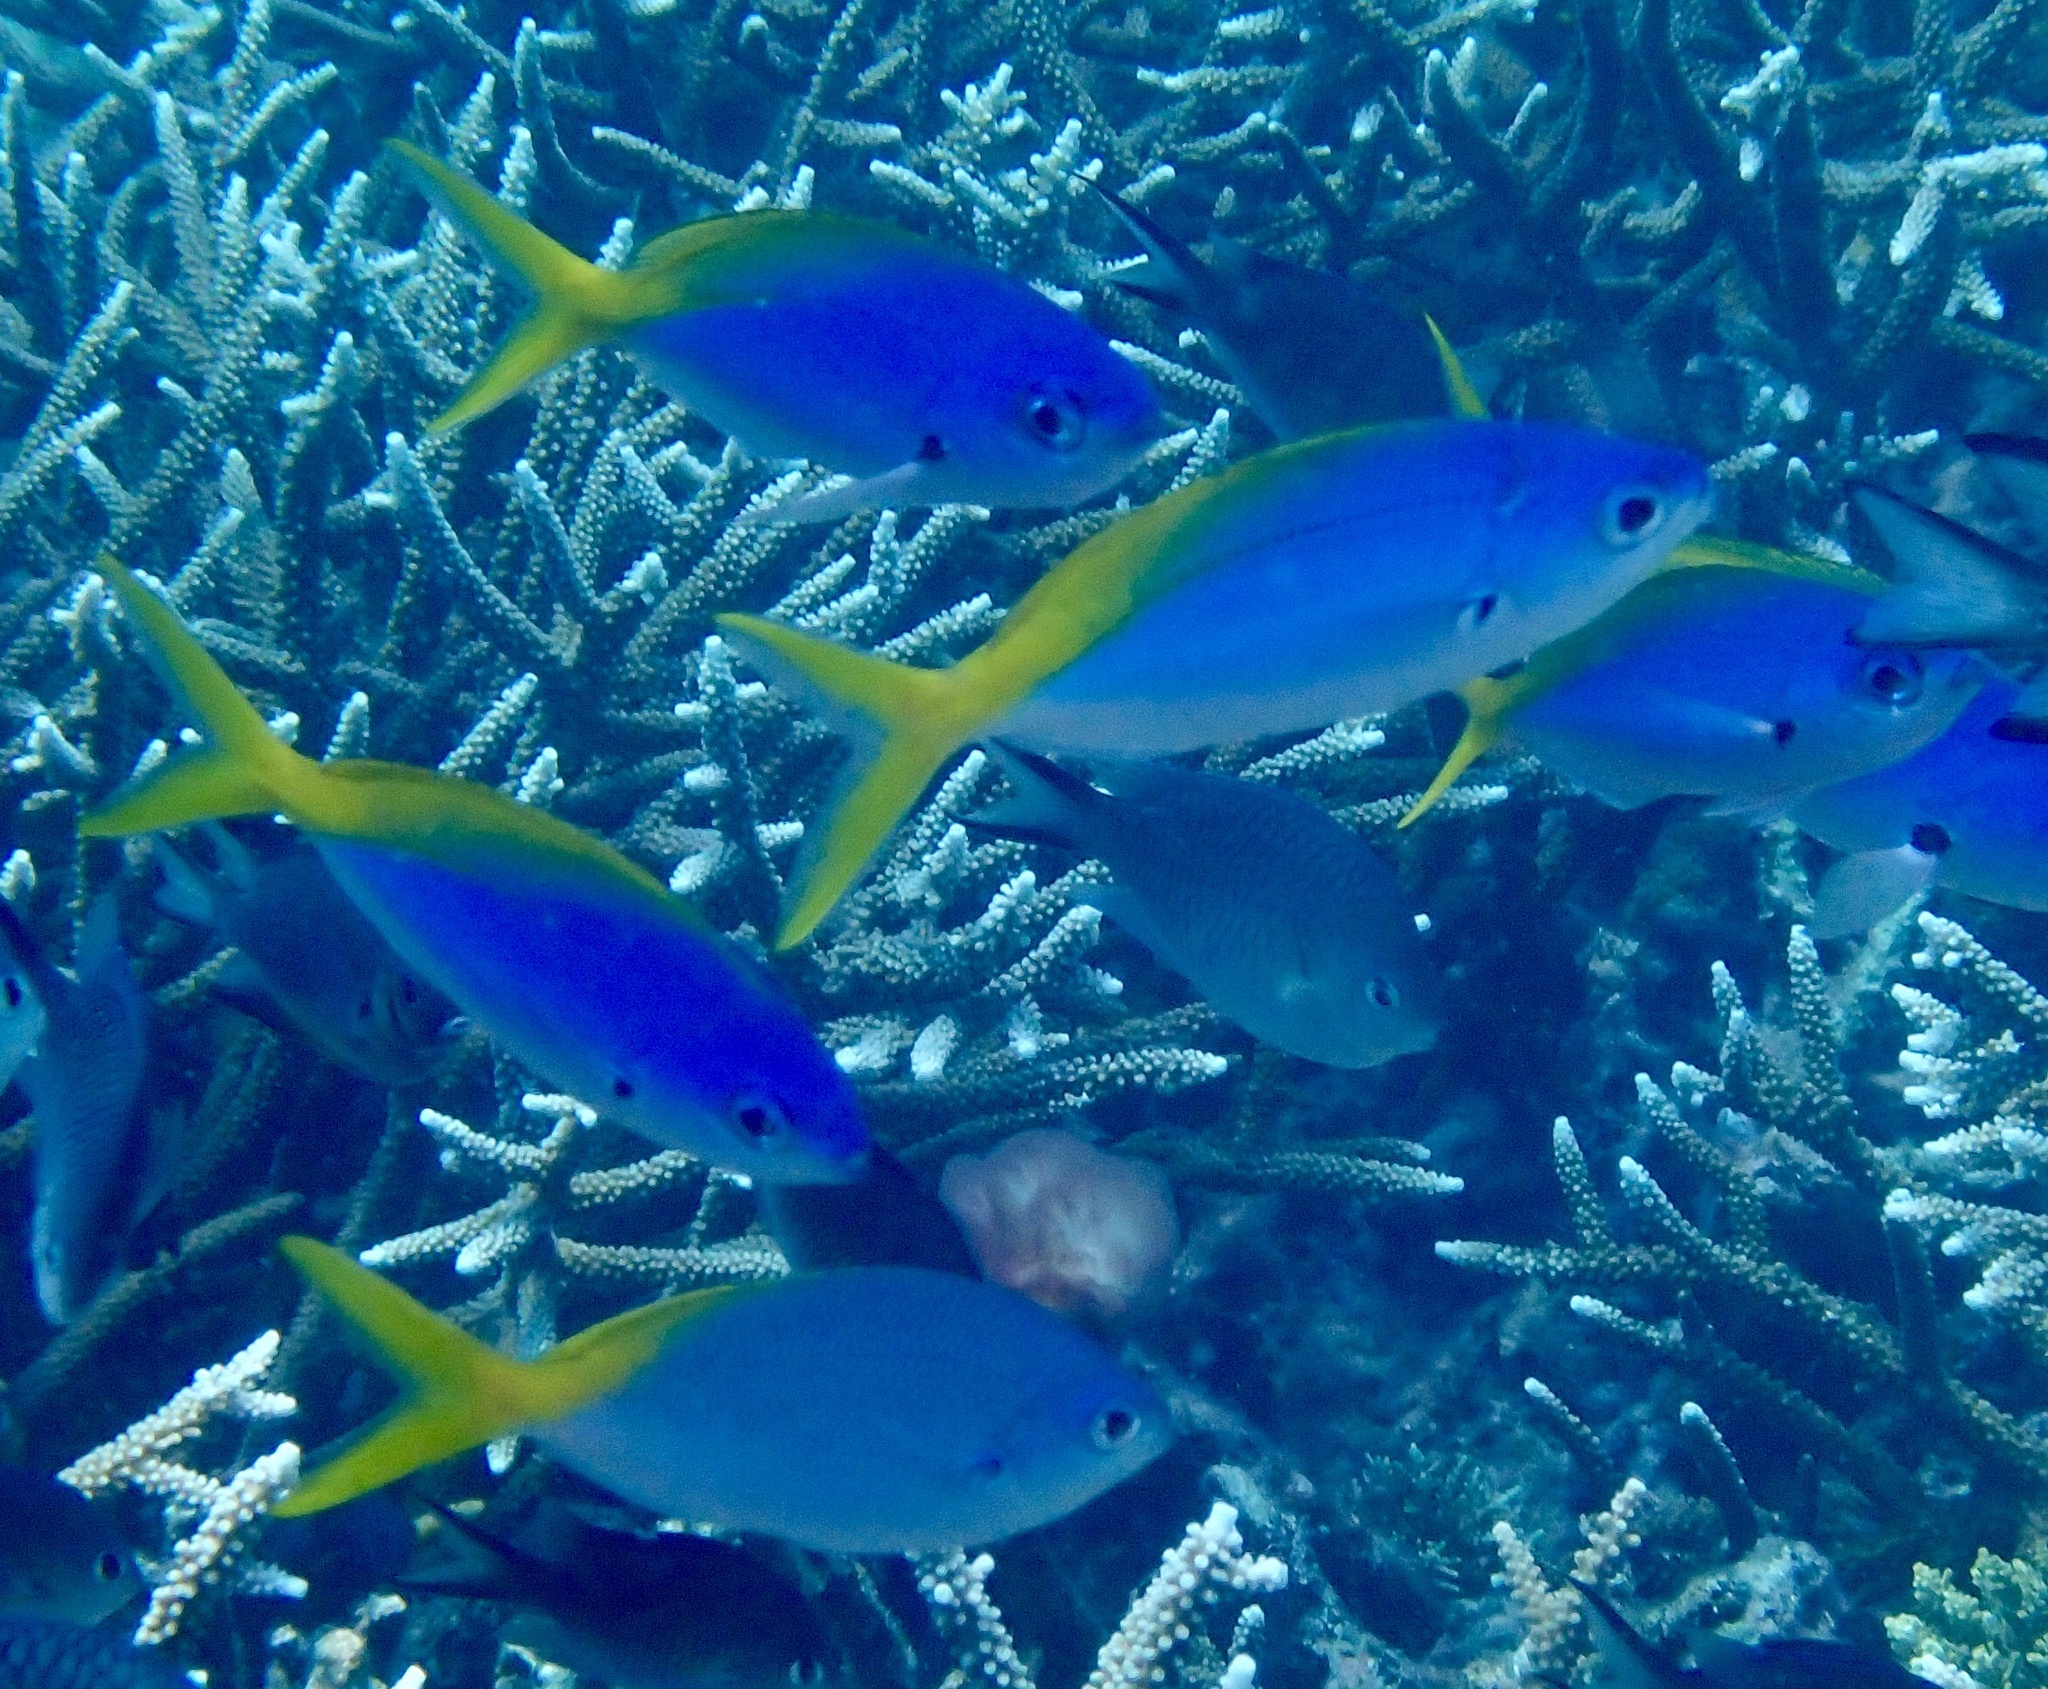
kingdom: Animalia
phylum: Chordata
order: Perciformes
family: Caesionidae
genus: Caesio
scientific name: Caesio teres
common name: Yellow and blueback fusilier
